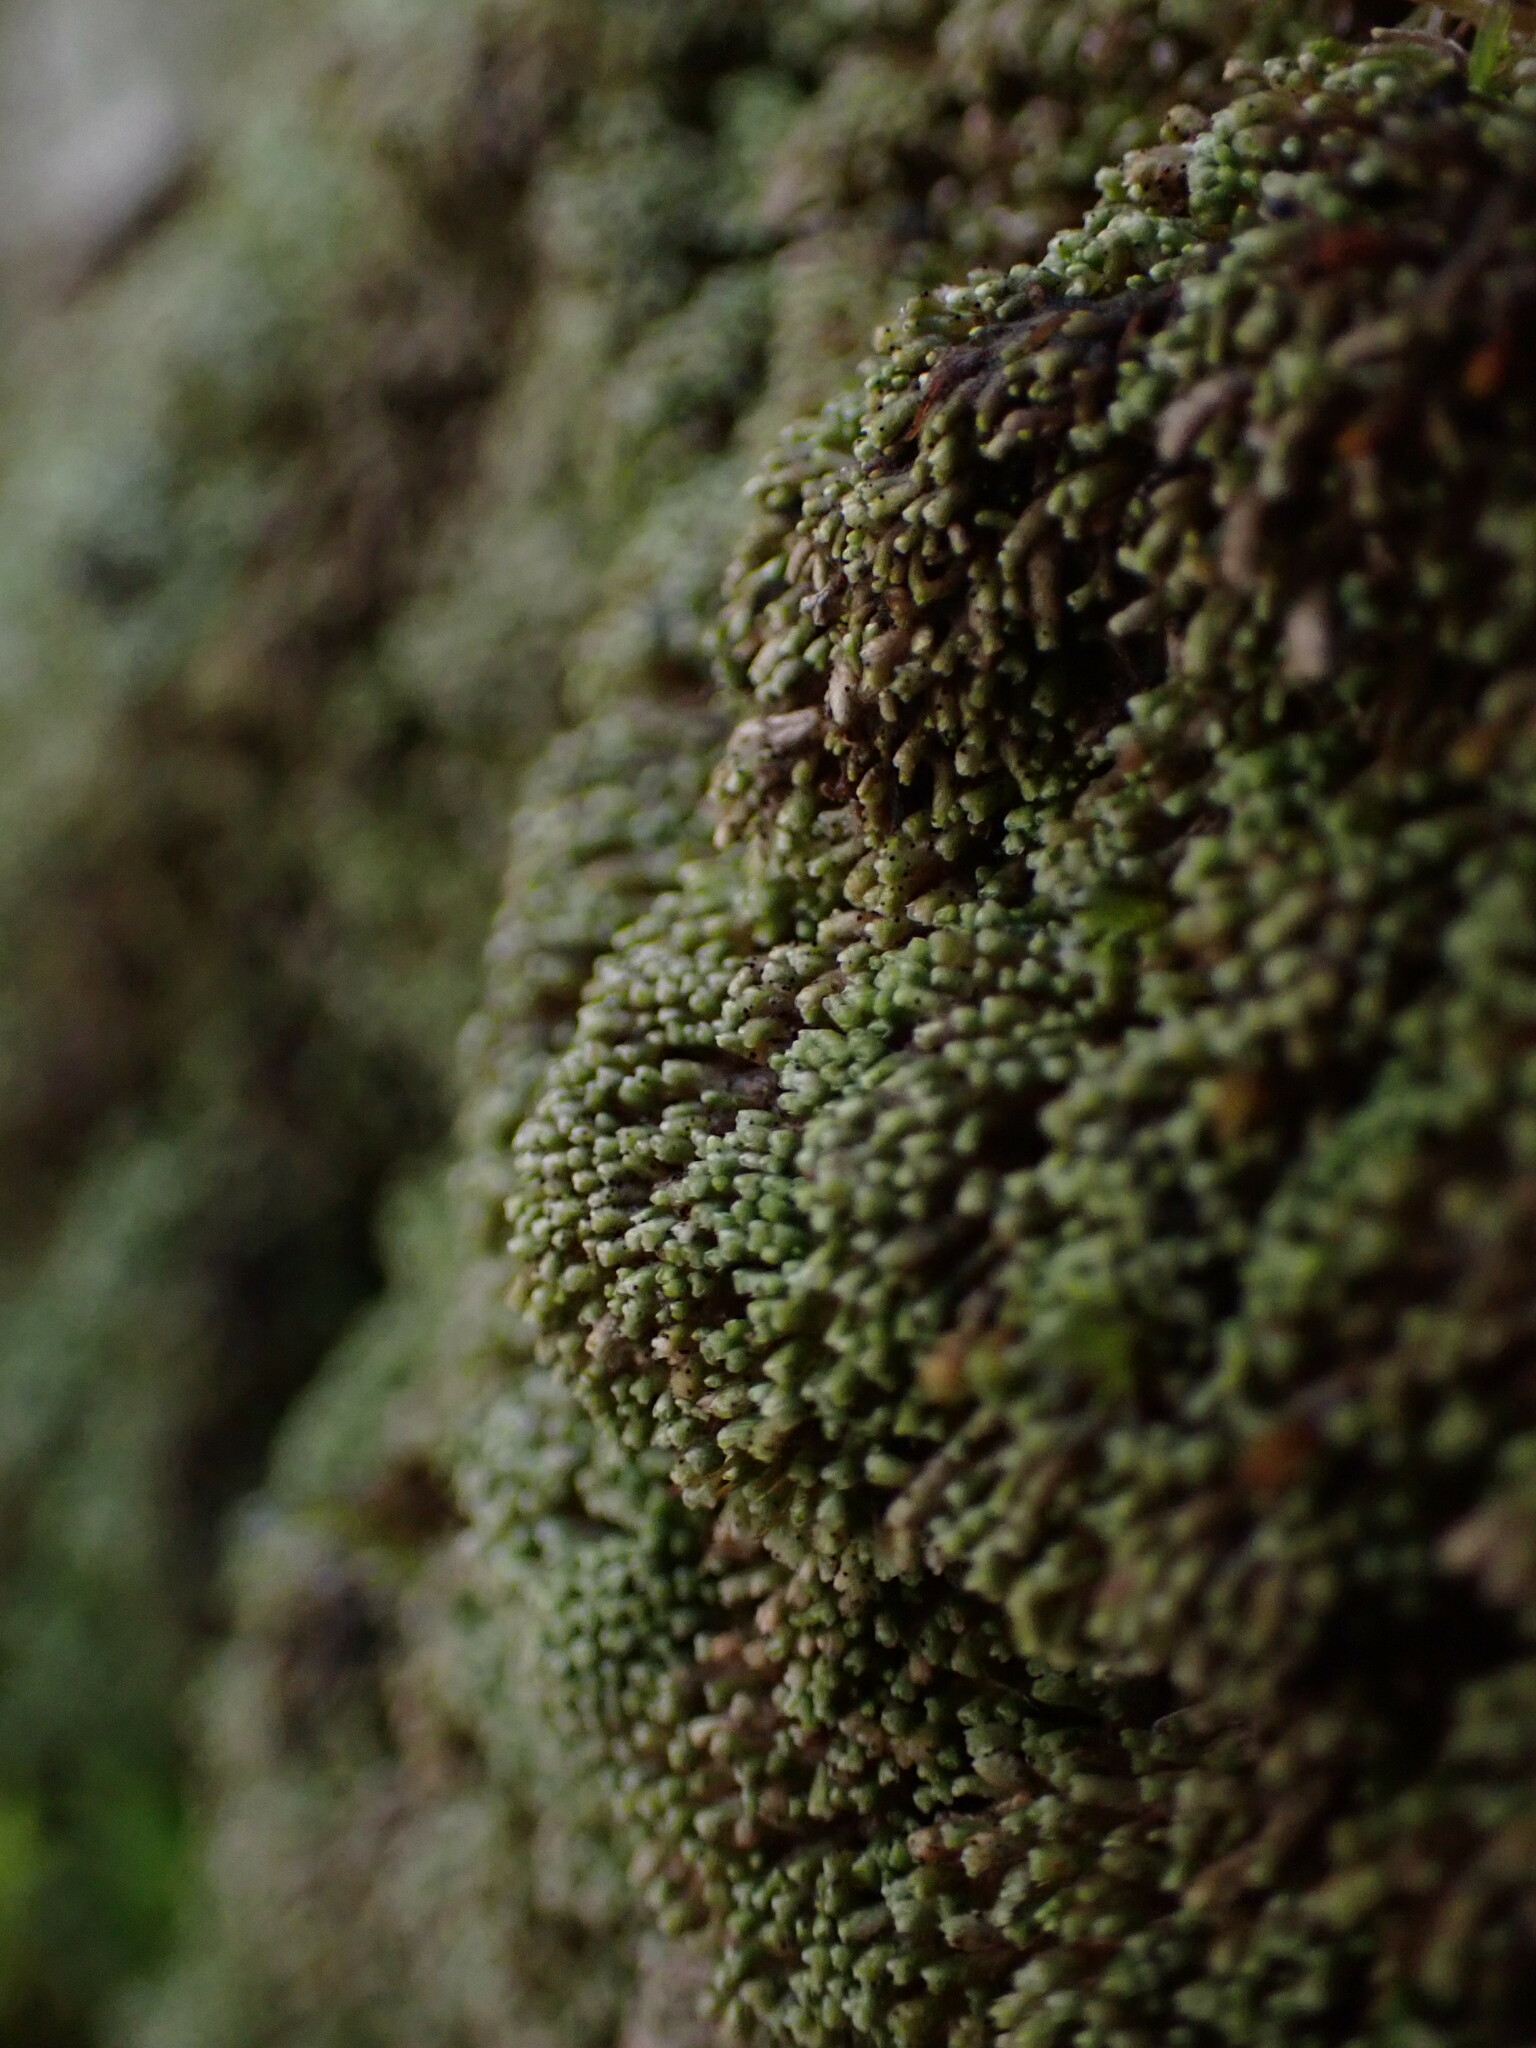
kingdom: Plantae
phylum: Marchantiophyta
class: Jungermanniopsida
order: Jungermanniales
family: Gymnomitriaceae
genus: Gymnomitrion
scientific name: Gymnomitrion obtusum
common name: White frostwort
